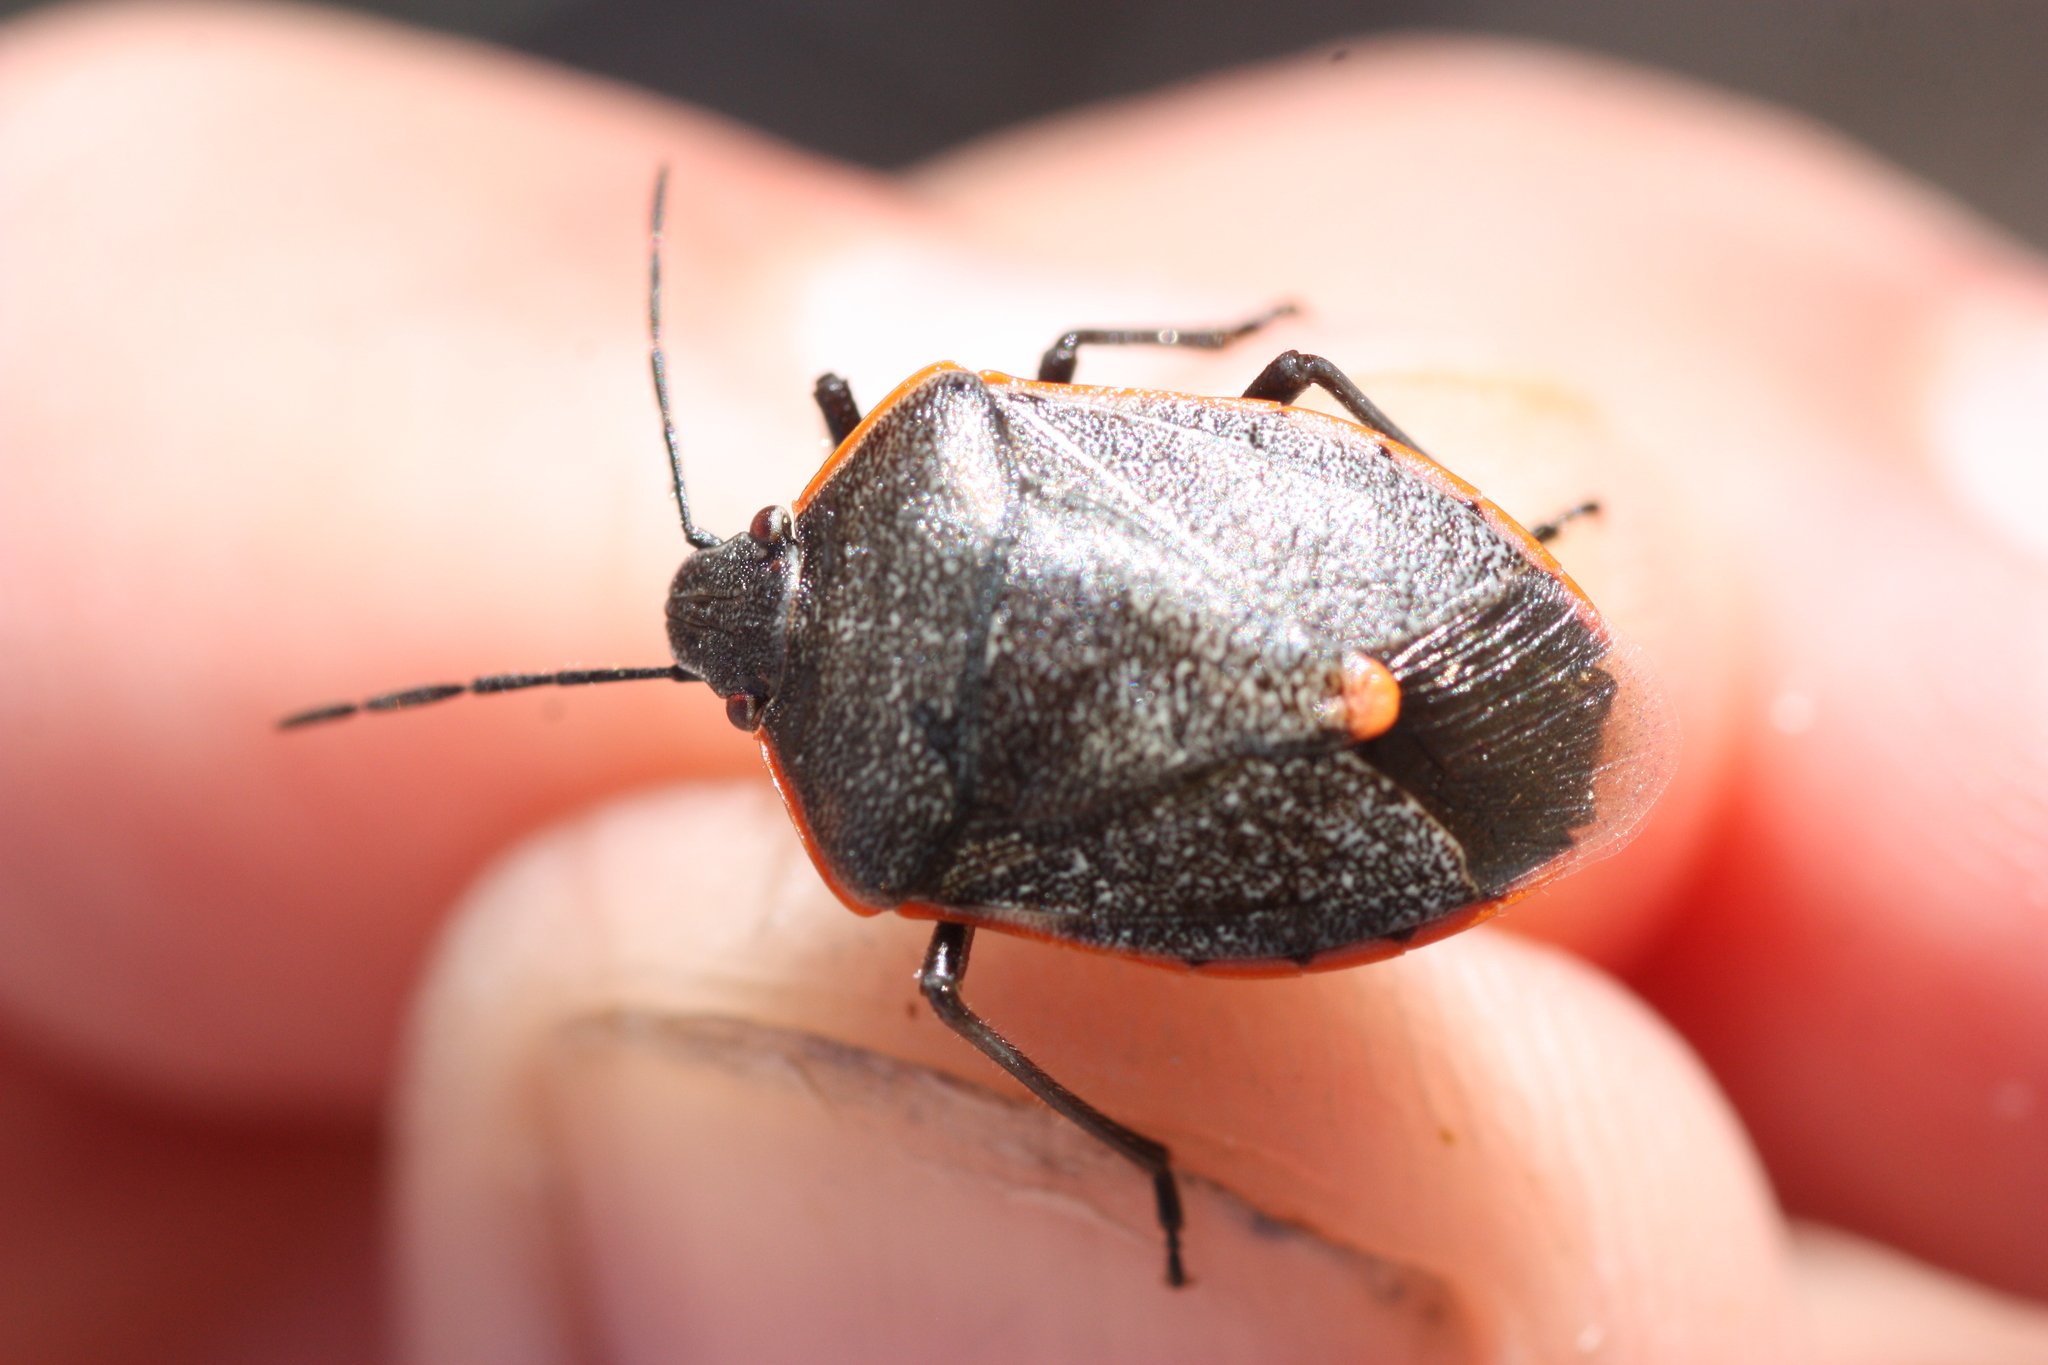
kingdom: Animalia
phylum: Arthropoda
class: Insecta
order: Hemiptera
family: Pentatomidae
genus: Chlorochroa
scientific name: Chlorochroa ligata
